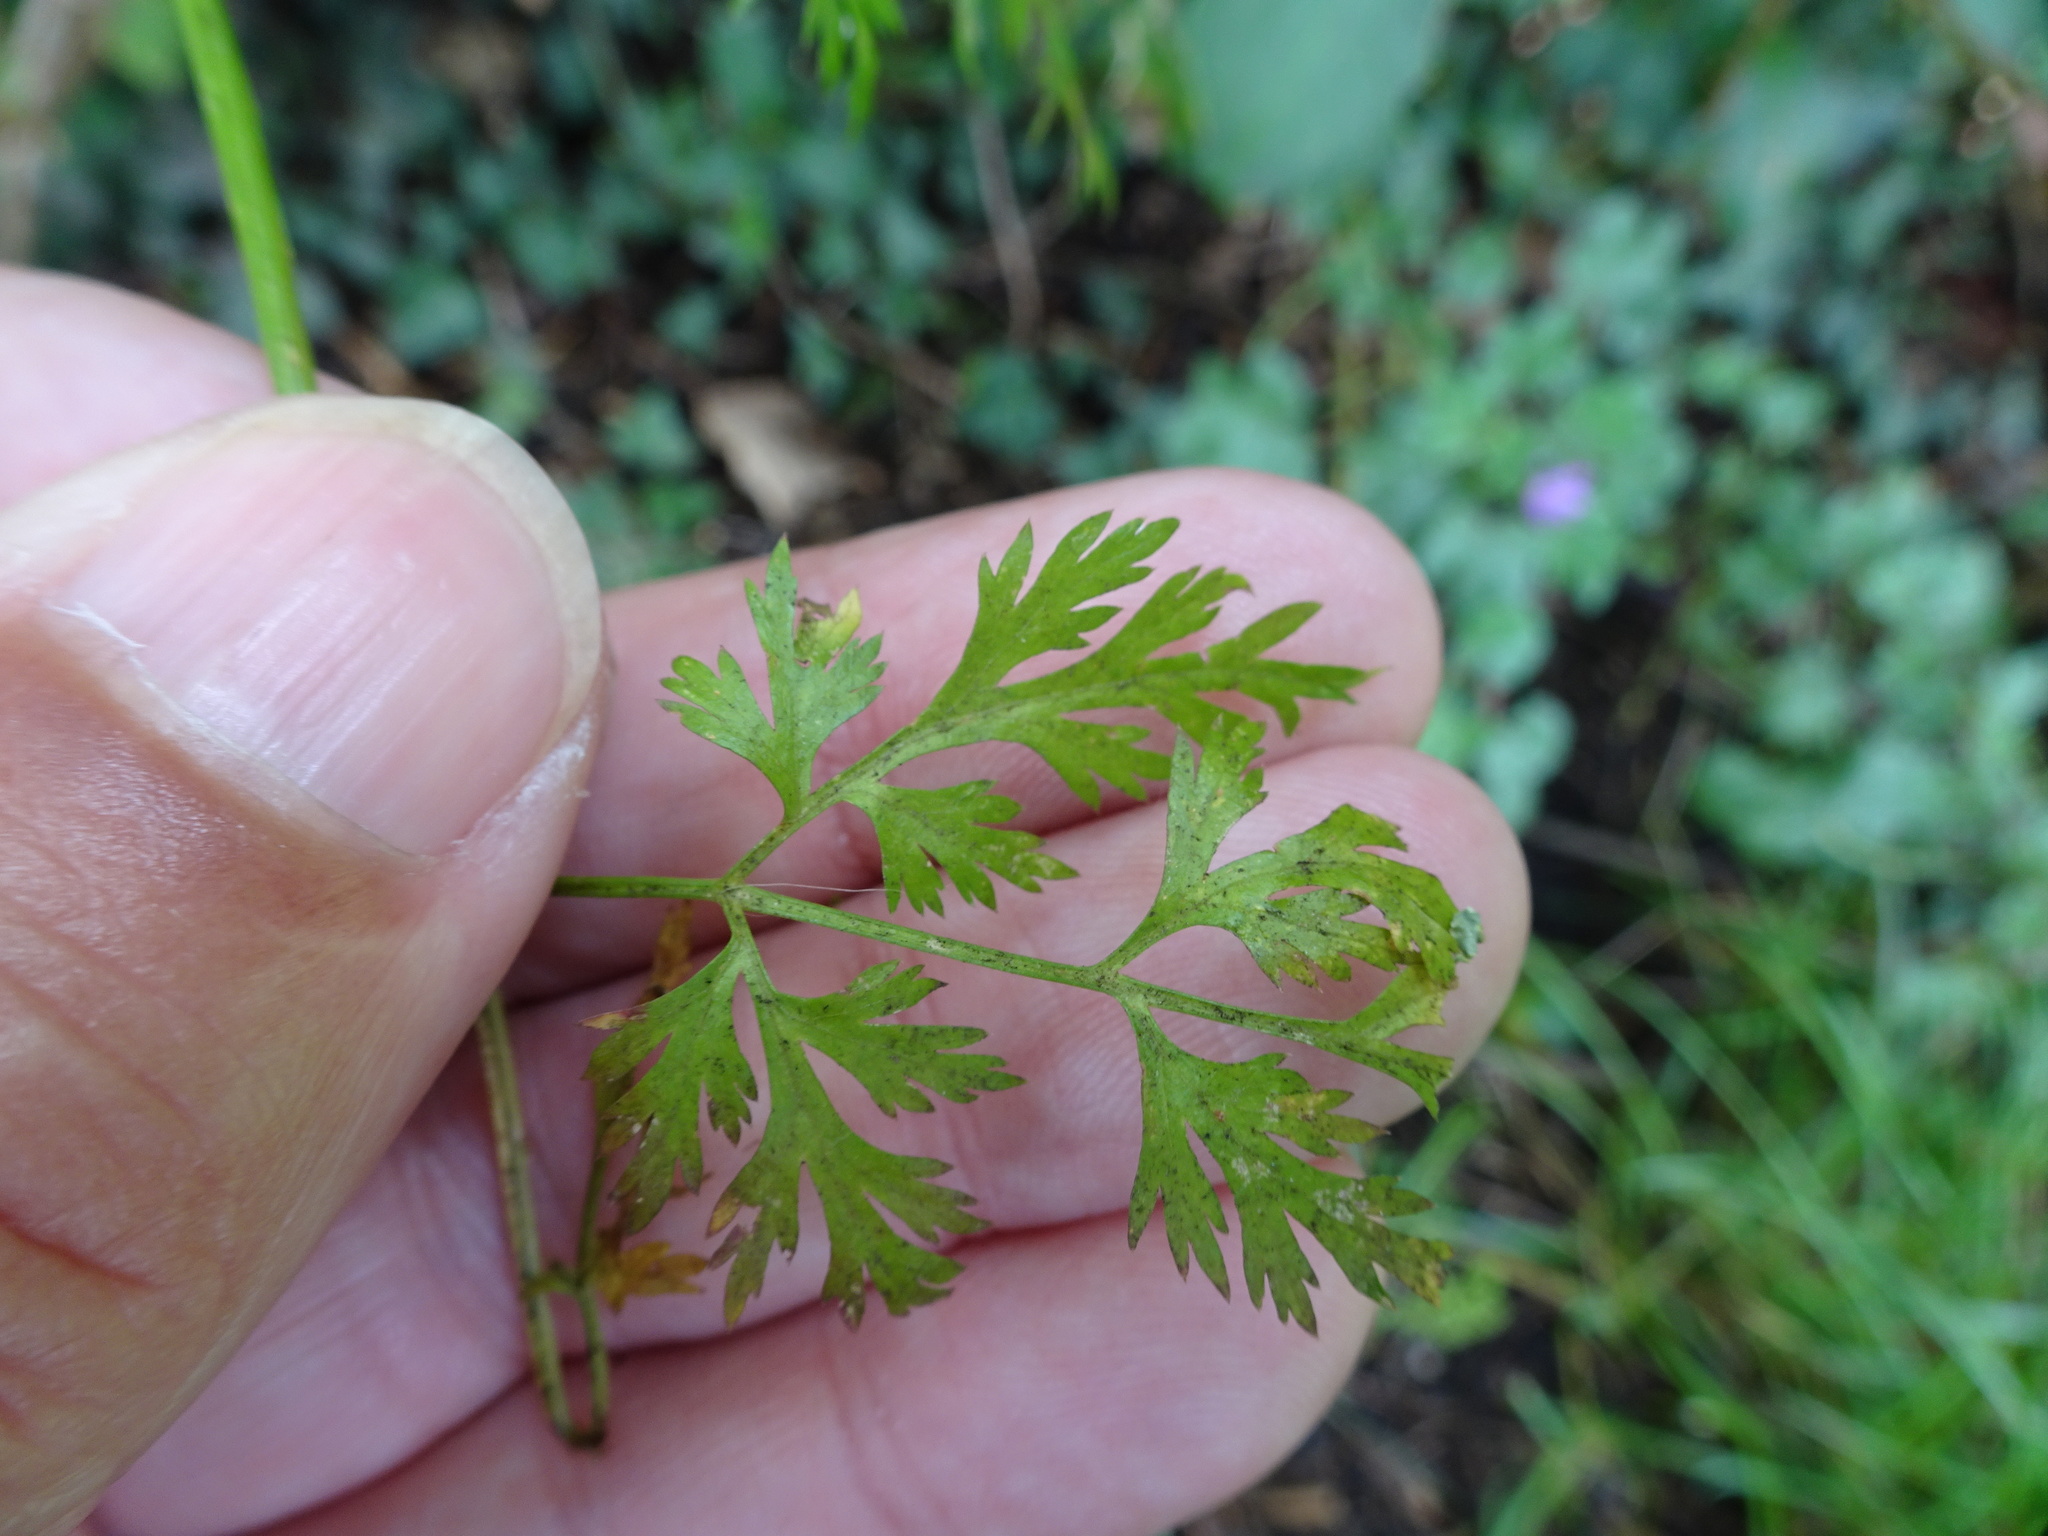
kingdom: Plantae
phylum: Tracheophyta
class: Magnoliopsida
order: Apiales
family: Apiaceae
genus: Aethusa
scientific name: Aethusa cynapium
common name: Fool's parsley
